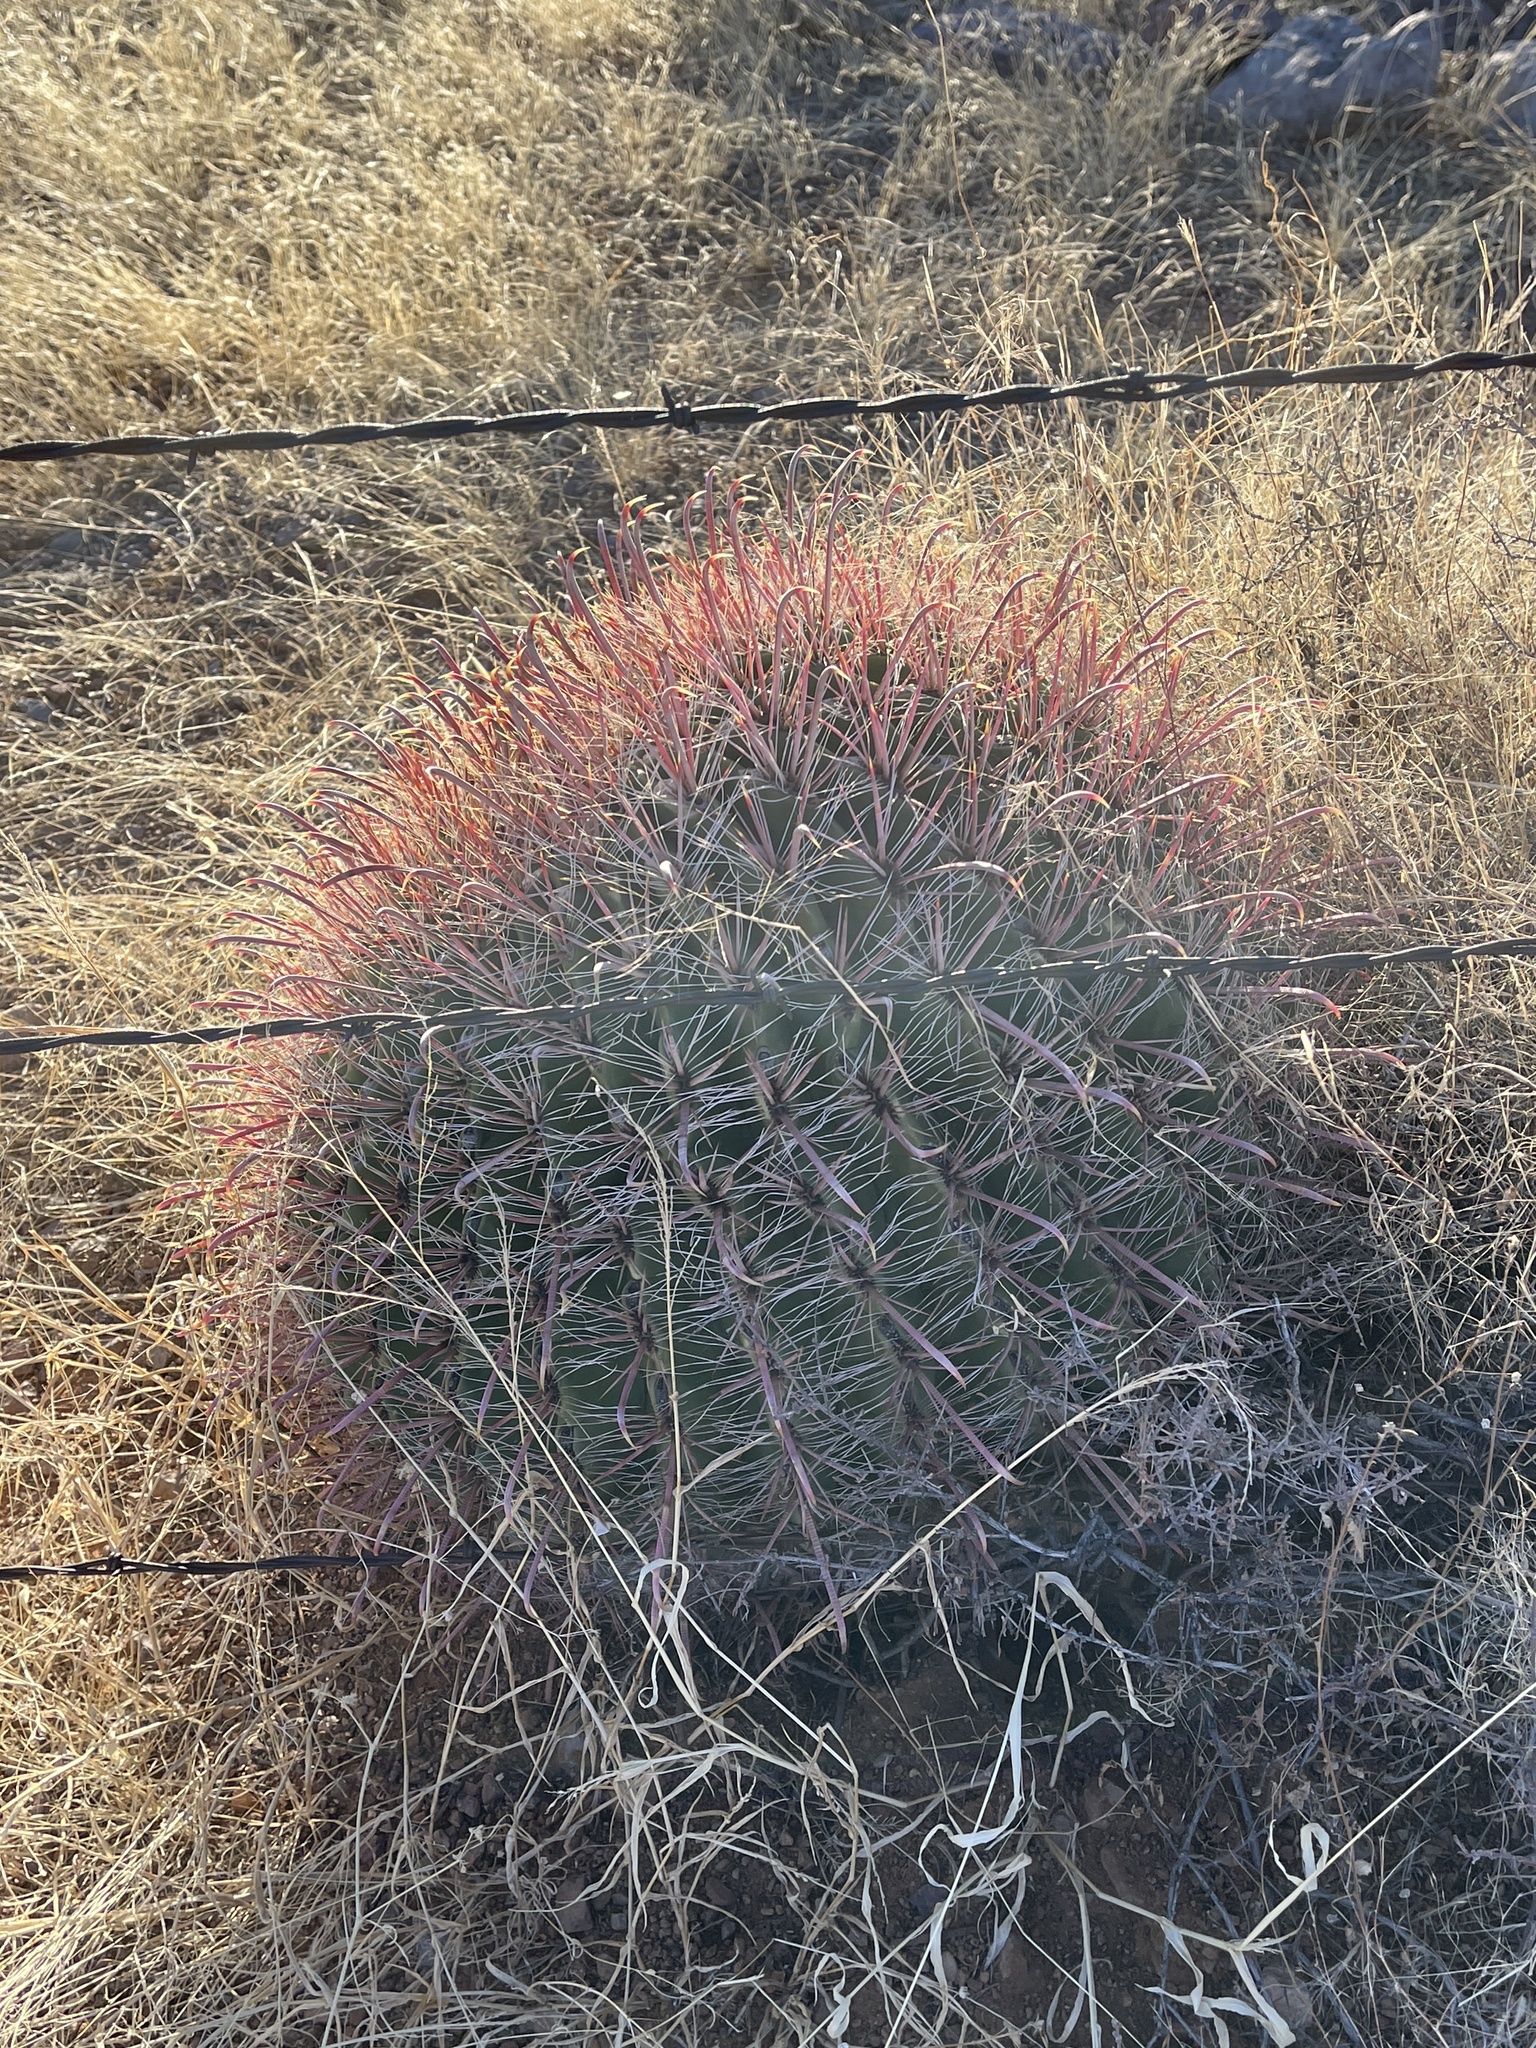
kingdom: Plantae
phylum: Tracheophyta
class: Magnoliopsida
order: Caryophyllales
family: Cactaceae
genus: Ferocactus
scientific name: Ferocactus wislizeni
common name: Candy barrel cactus
